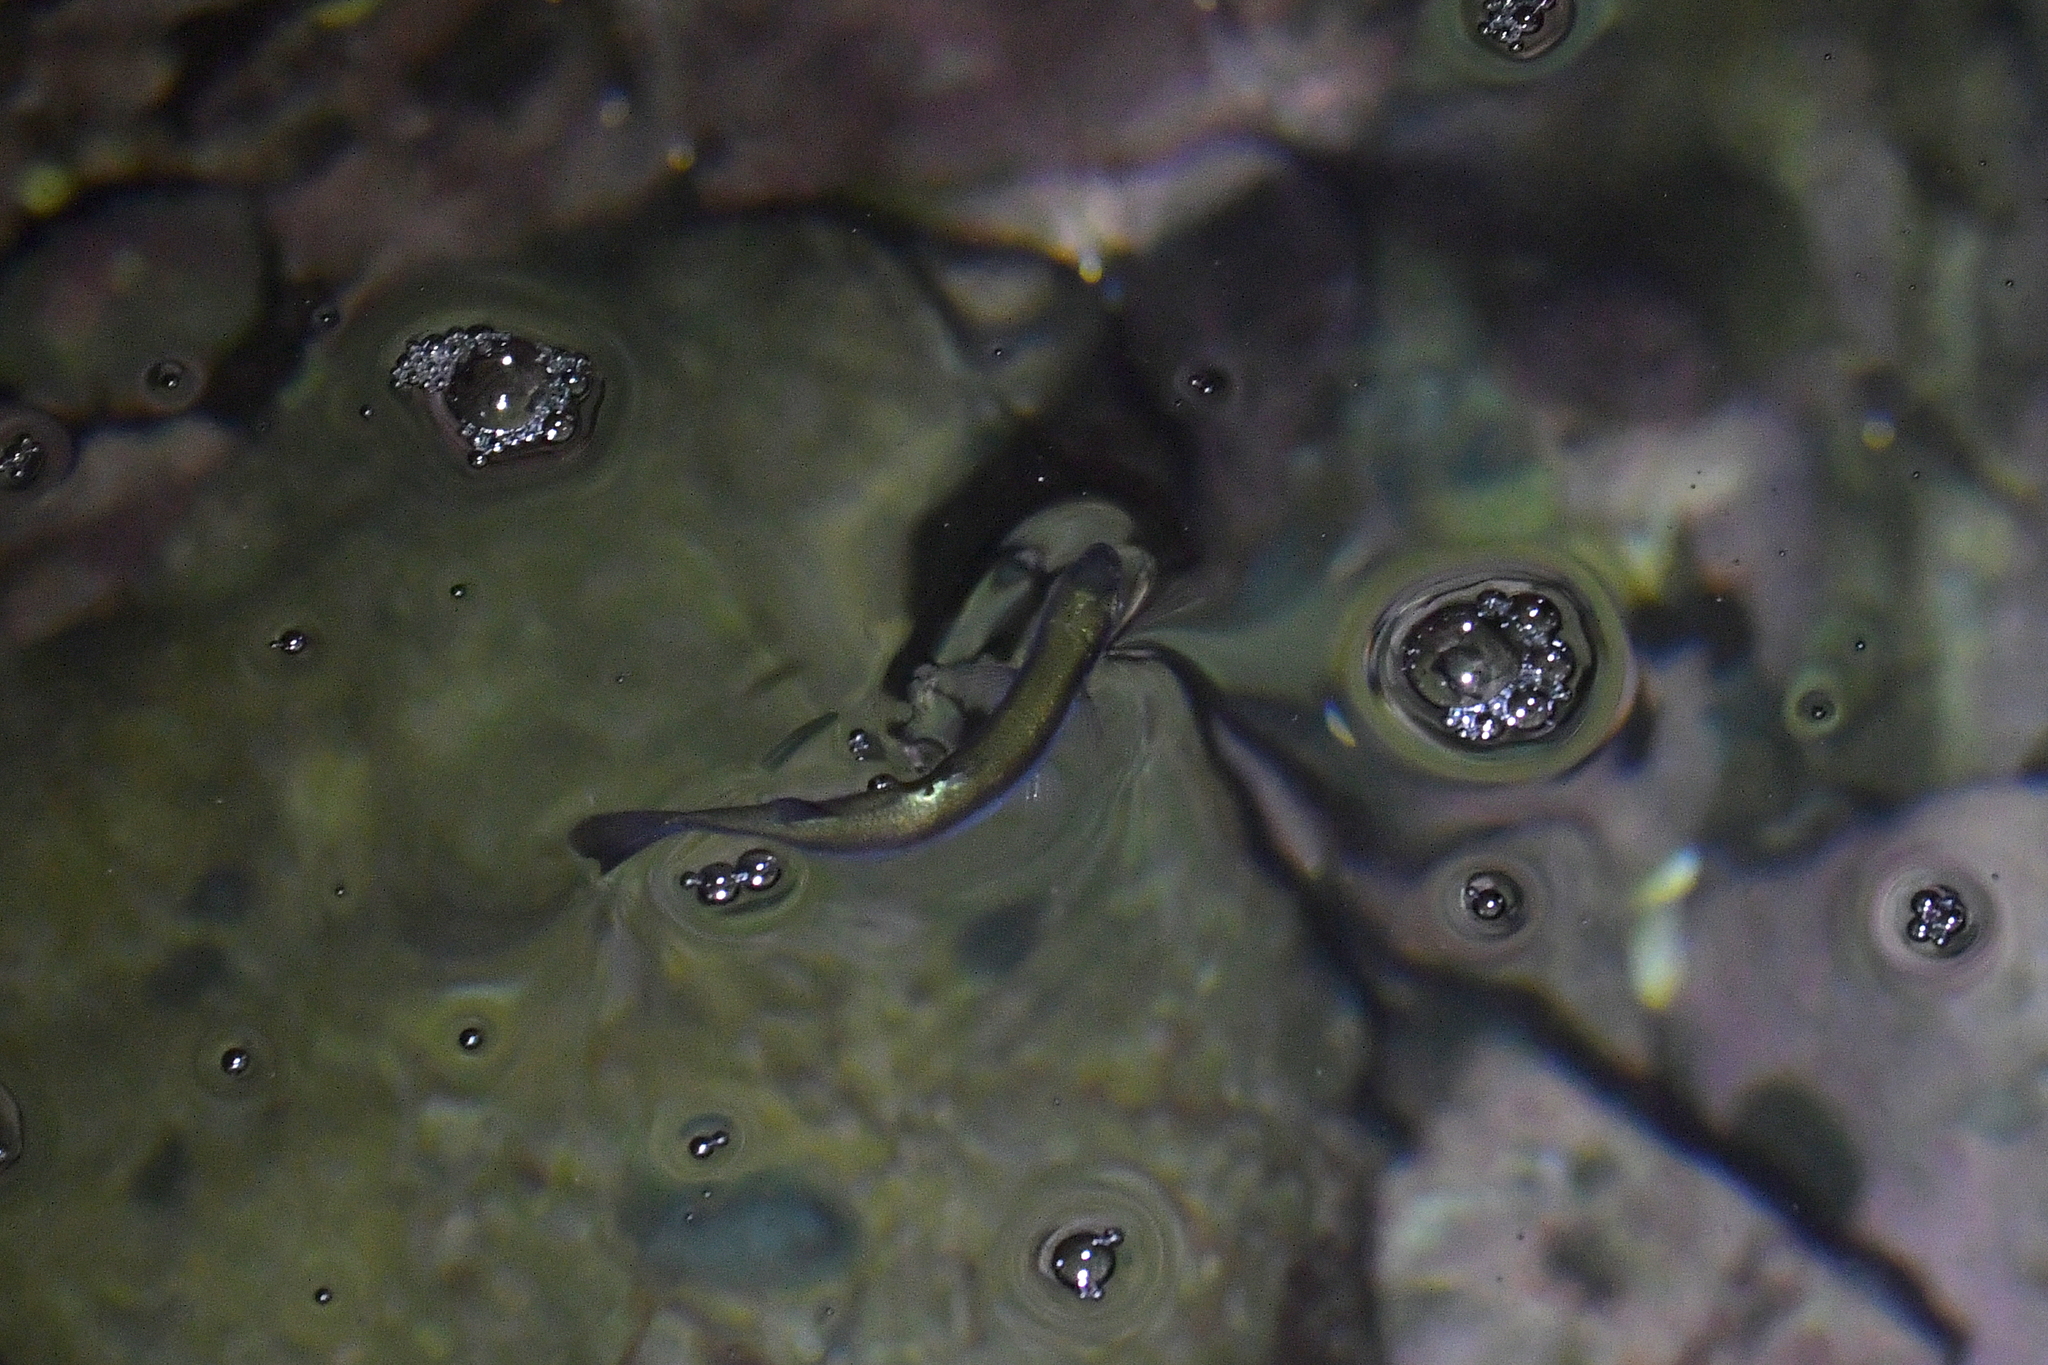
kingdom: Animalia
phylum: Chordata
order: Mugiliformes
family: Mugilidae
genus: Aldrichetta
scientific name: Aldrichetta forsteri
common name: Yellow-eye mullet
